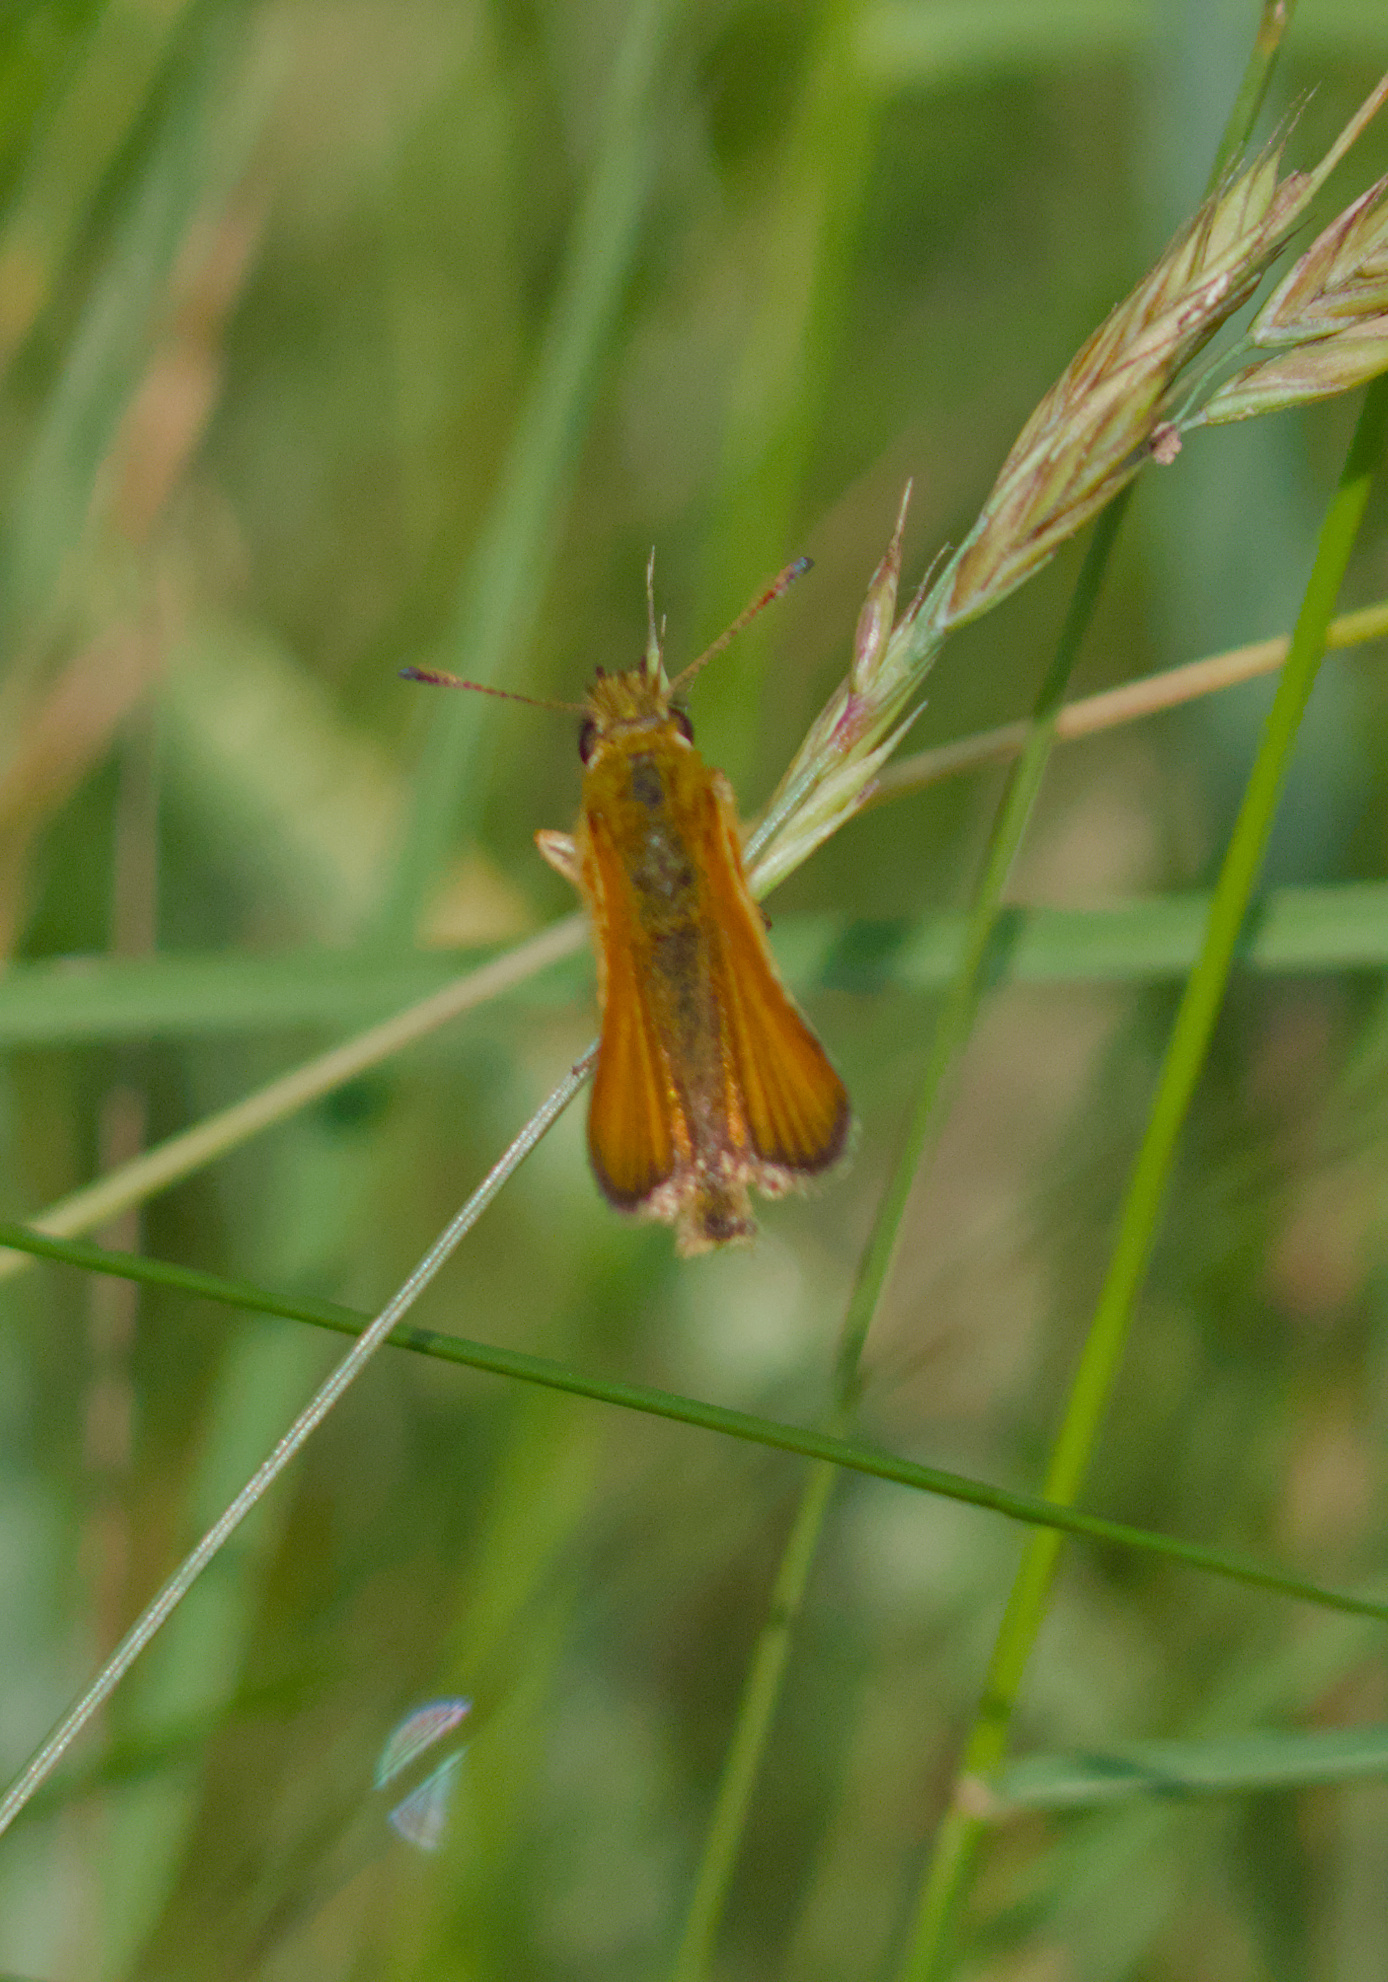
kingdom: Animalia
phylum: Arthropoda
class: Insecta
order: Lepidoptera
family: Hesperiidae
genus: Thymelicus
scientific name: Thymelicus lineola
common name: Essex skipper
